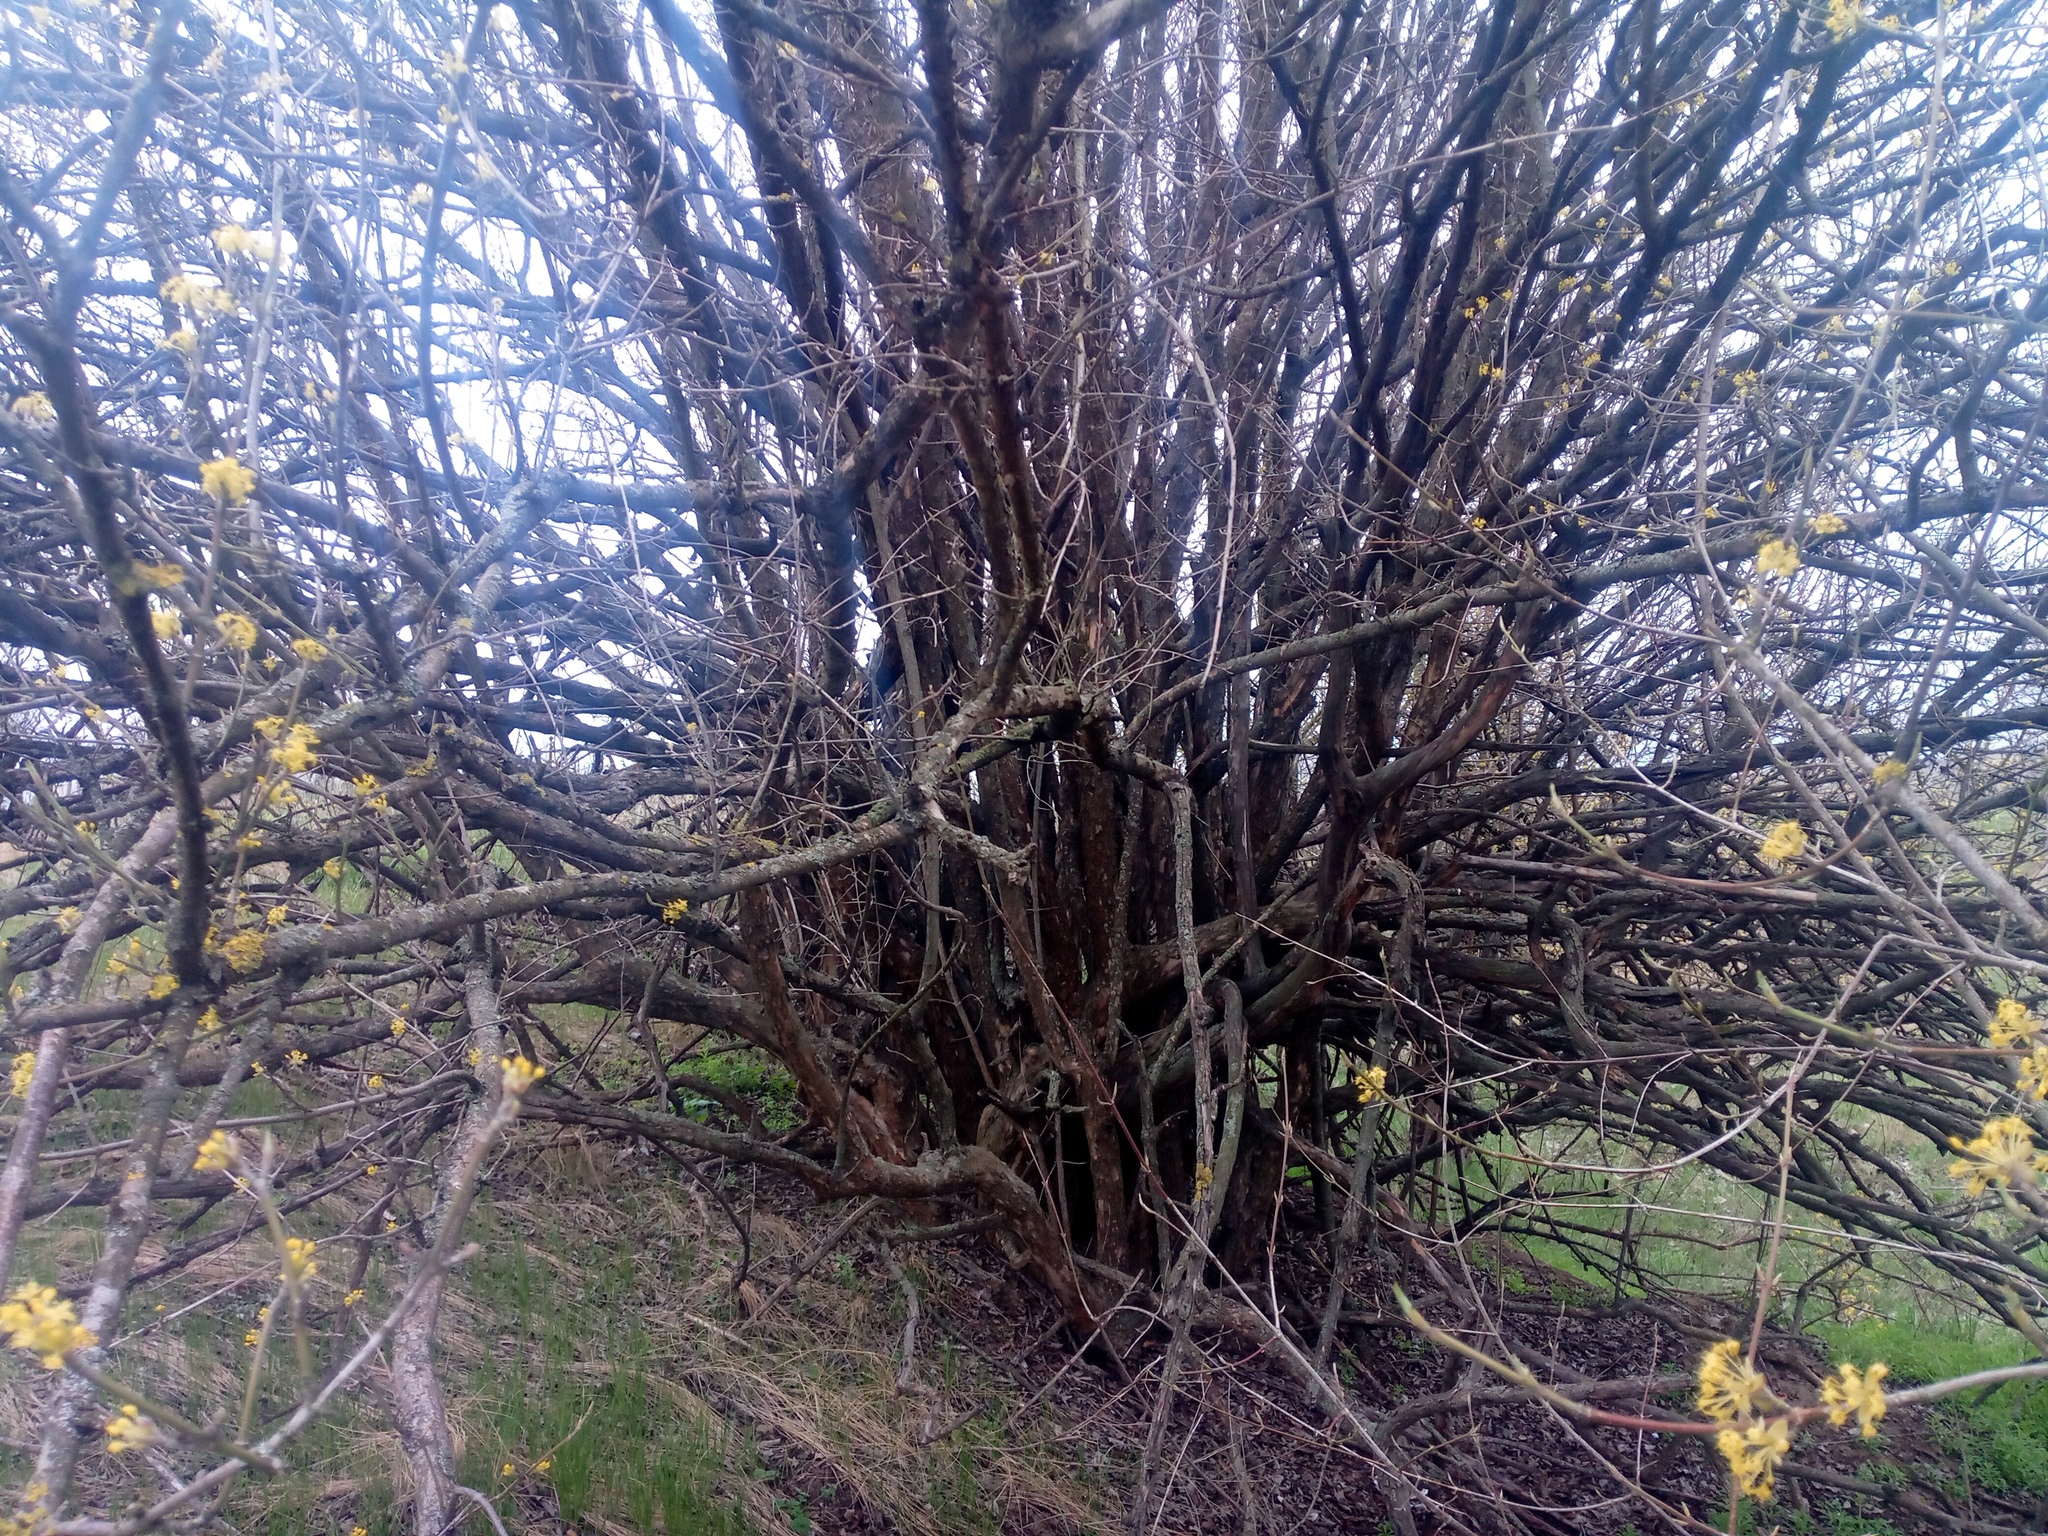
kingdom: Plantae
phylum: Tracheophyta
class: Magnoliopsida
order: Cornales
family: Cornaceae
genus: Cornus
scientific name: Cornus mas
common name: Cornelian-cherry
